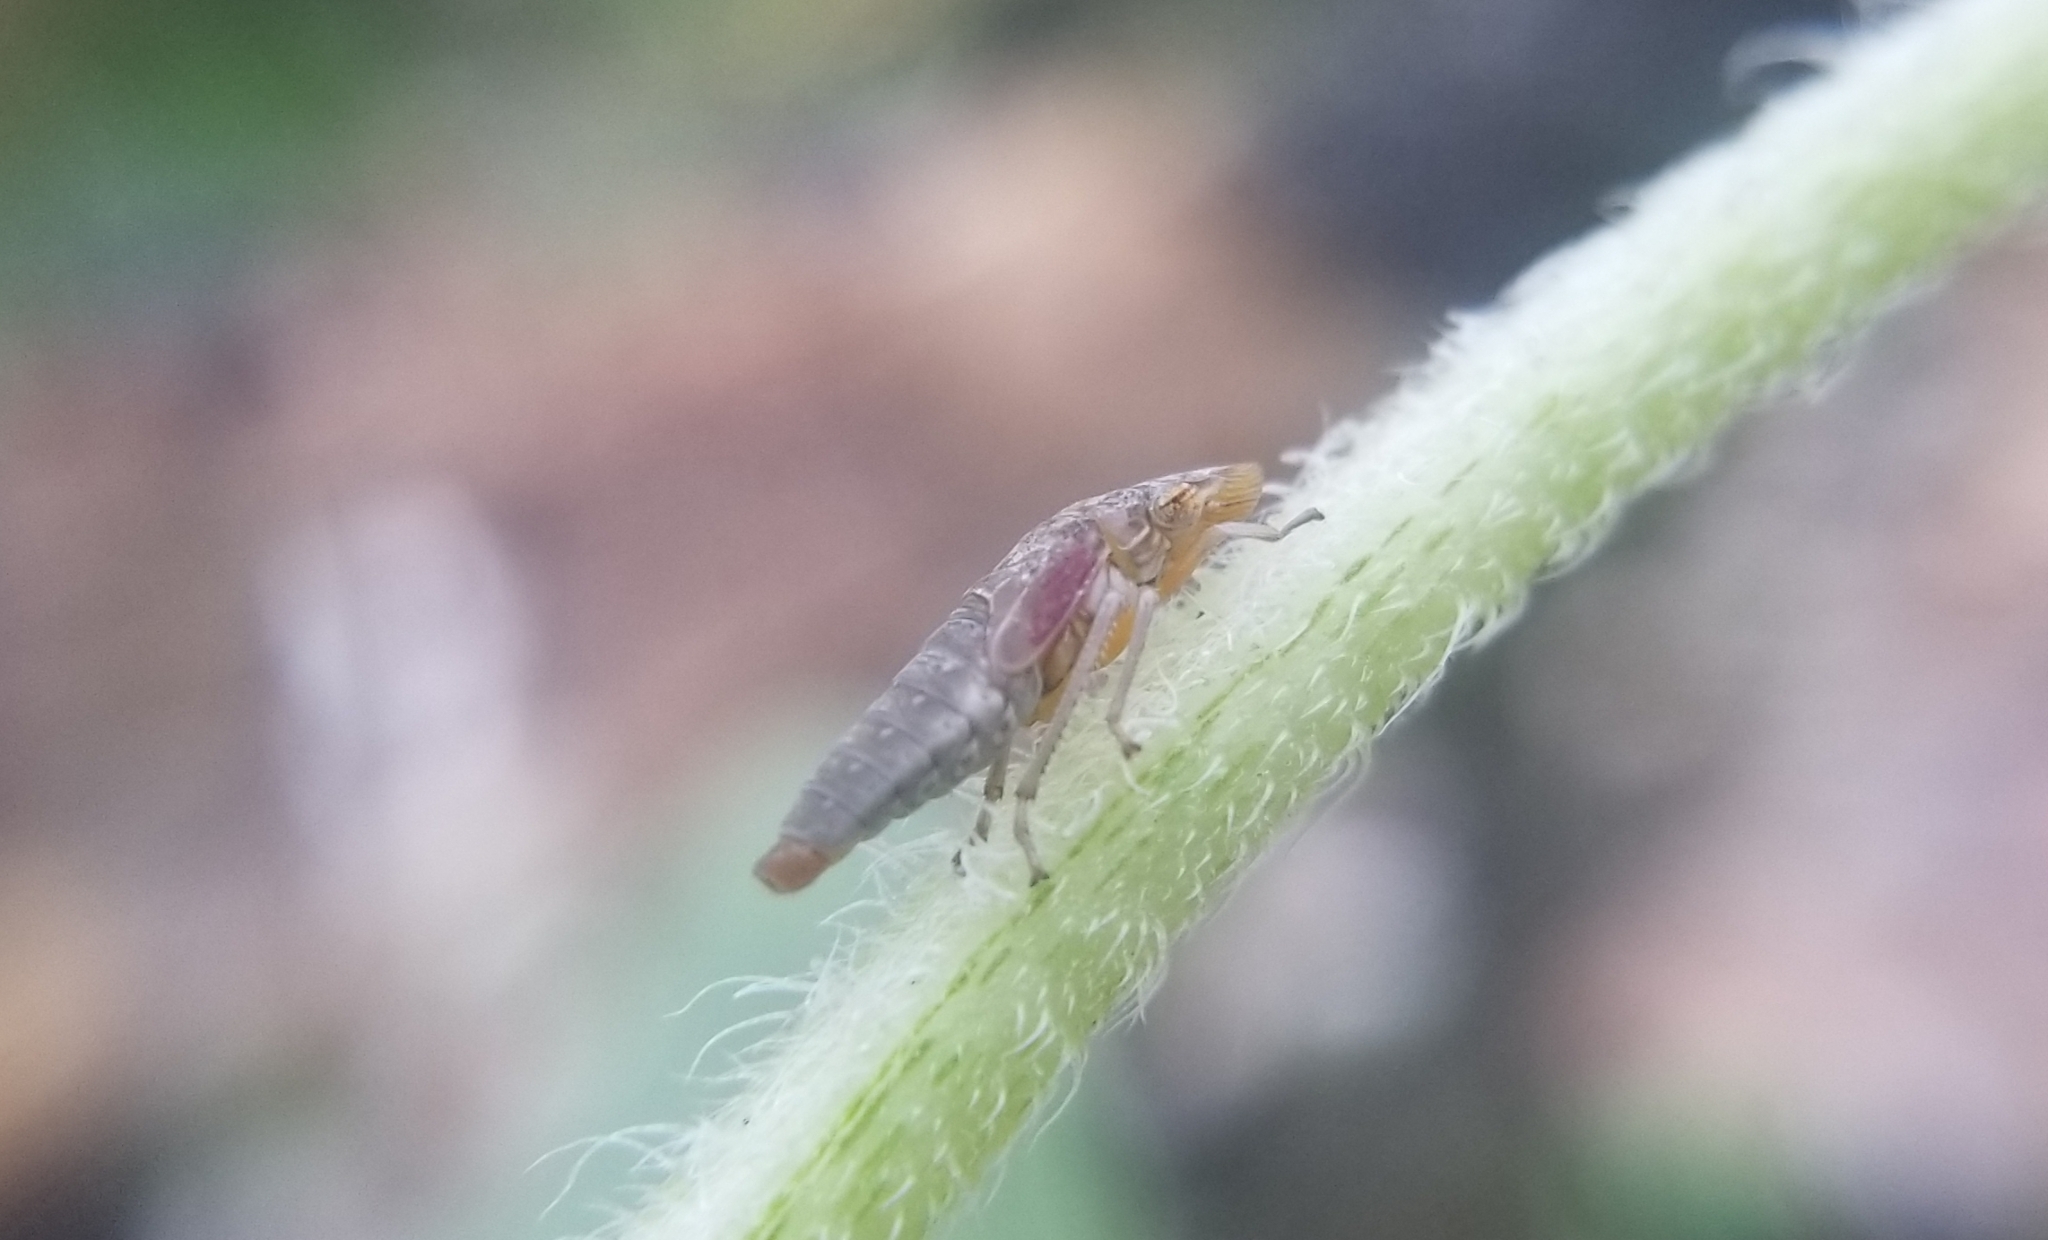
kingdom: Animalia
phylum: Arthropoda
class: Insecta
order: Hemiptera
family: Cicadellidae
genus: Homalodisca
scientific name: Homalodisca vitripennis
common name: Glassy-winged sharpshooter
